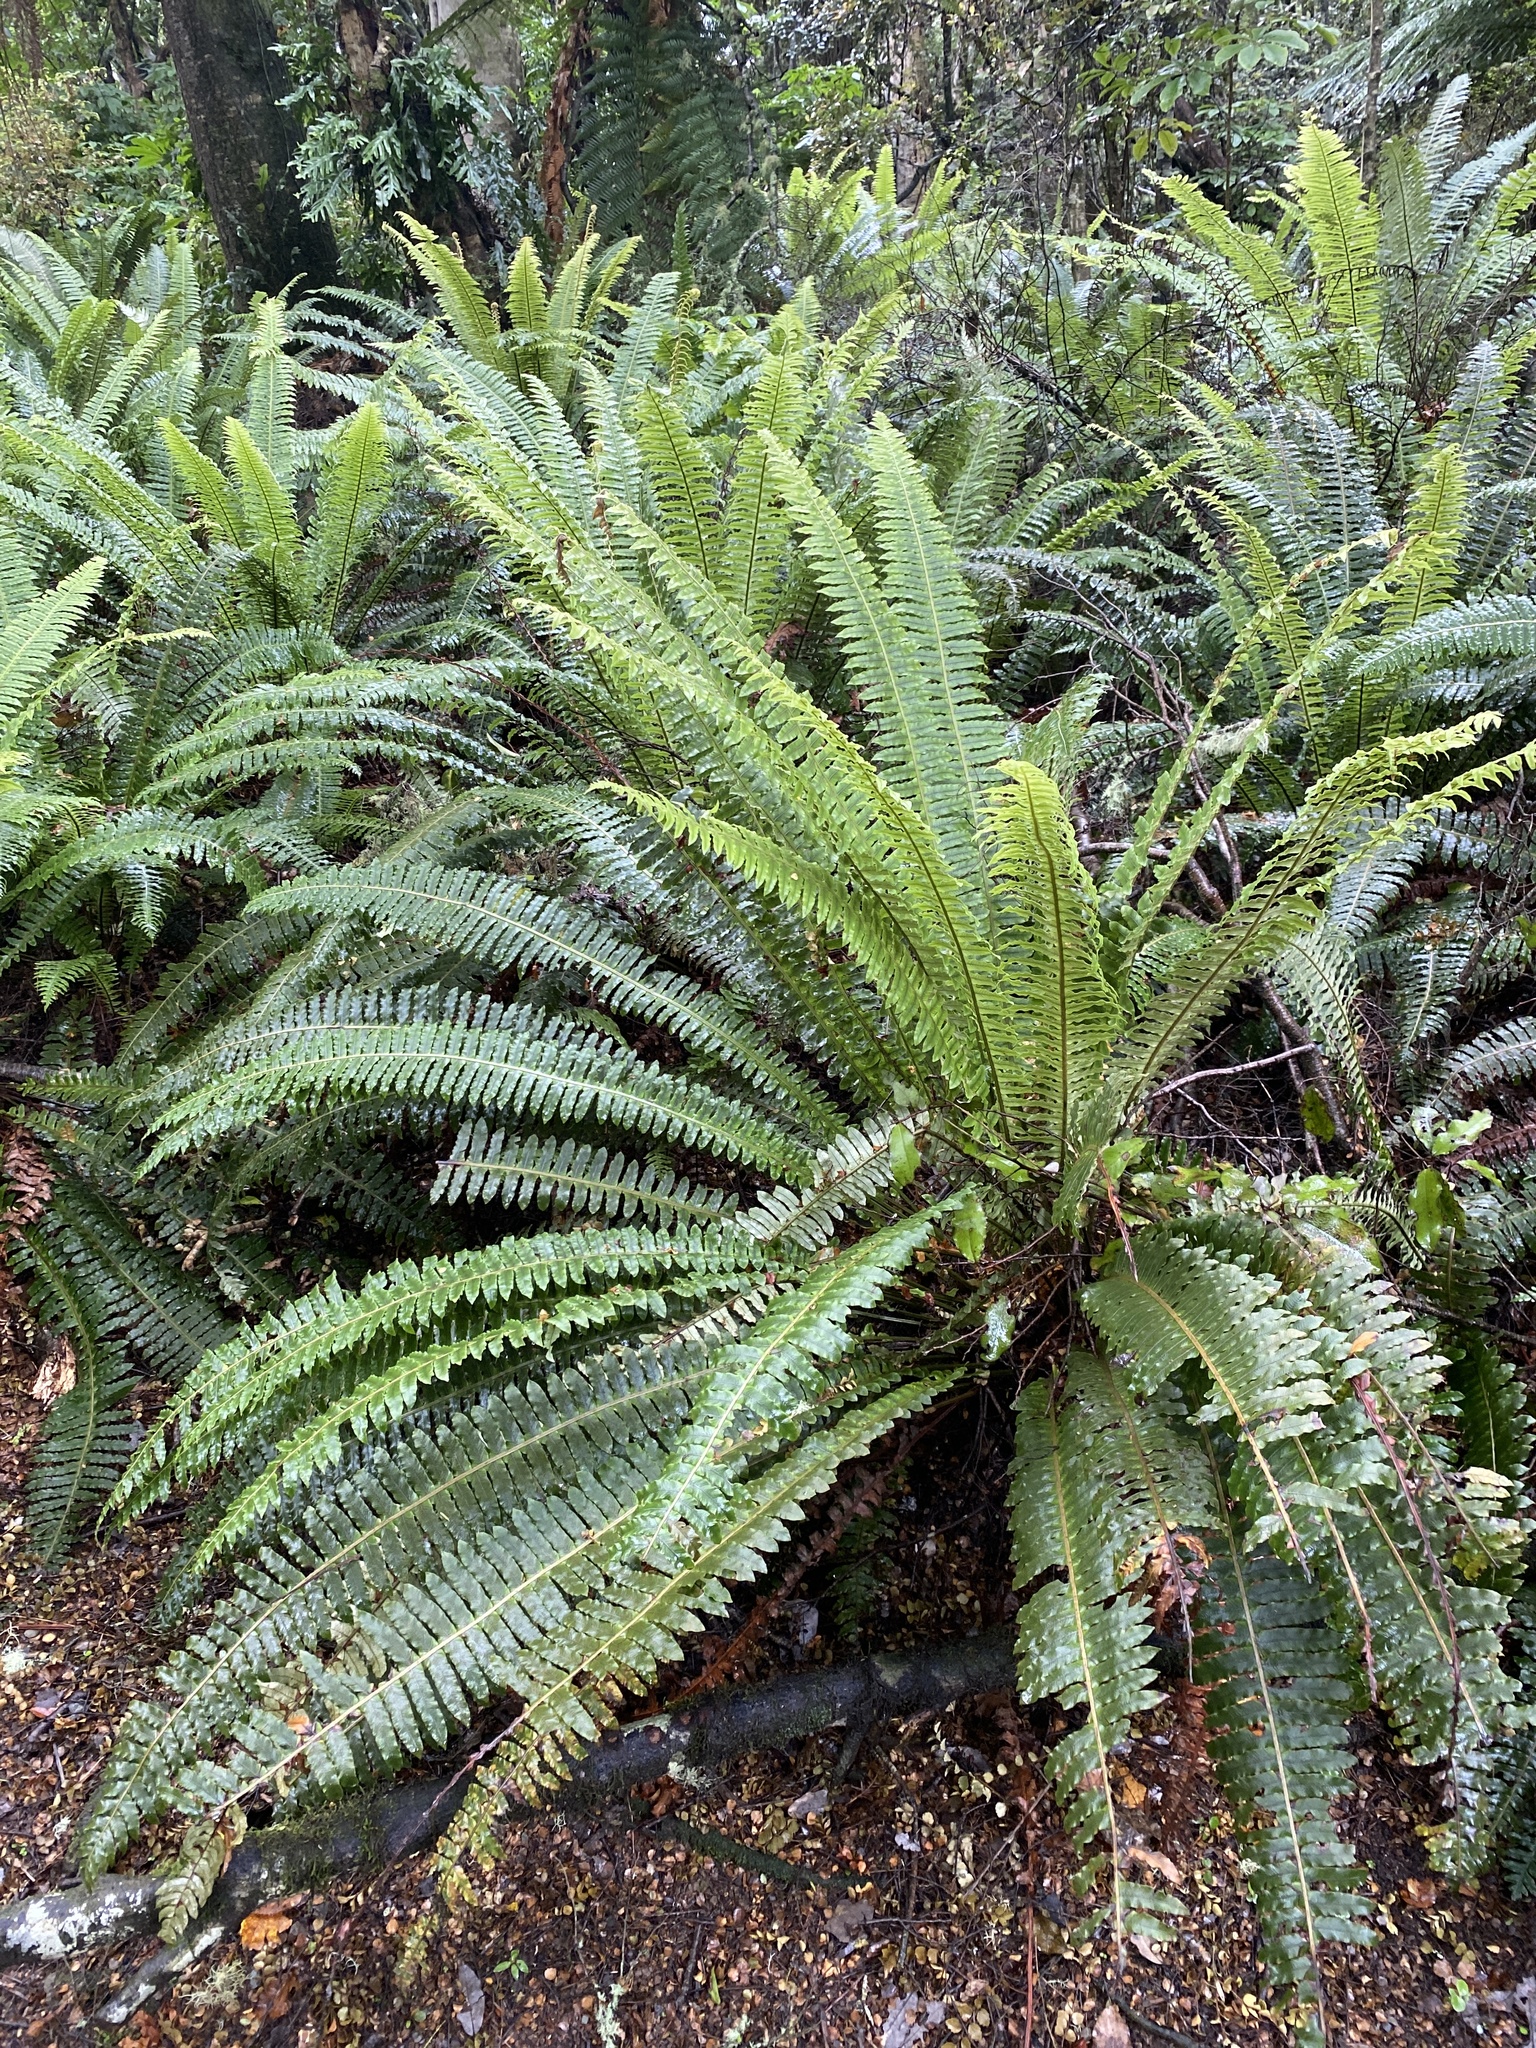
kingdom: Plantae
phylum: Tracheophyta
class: Polypodiopsida
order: Polypodiales
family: Blechnaceae
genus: Lomaria
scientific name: Lomaria discolor
